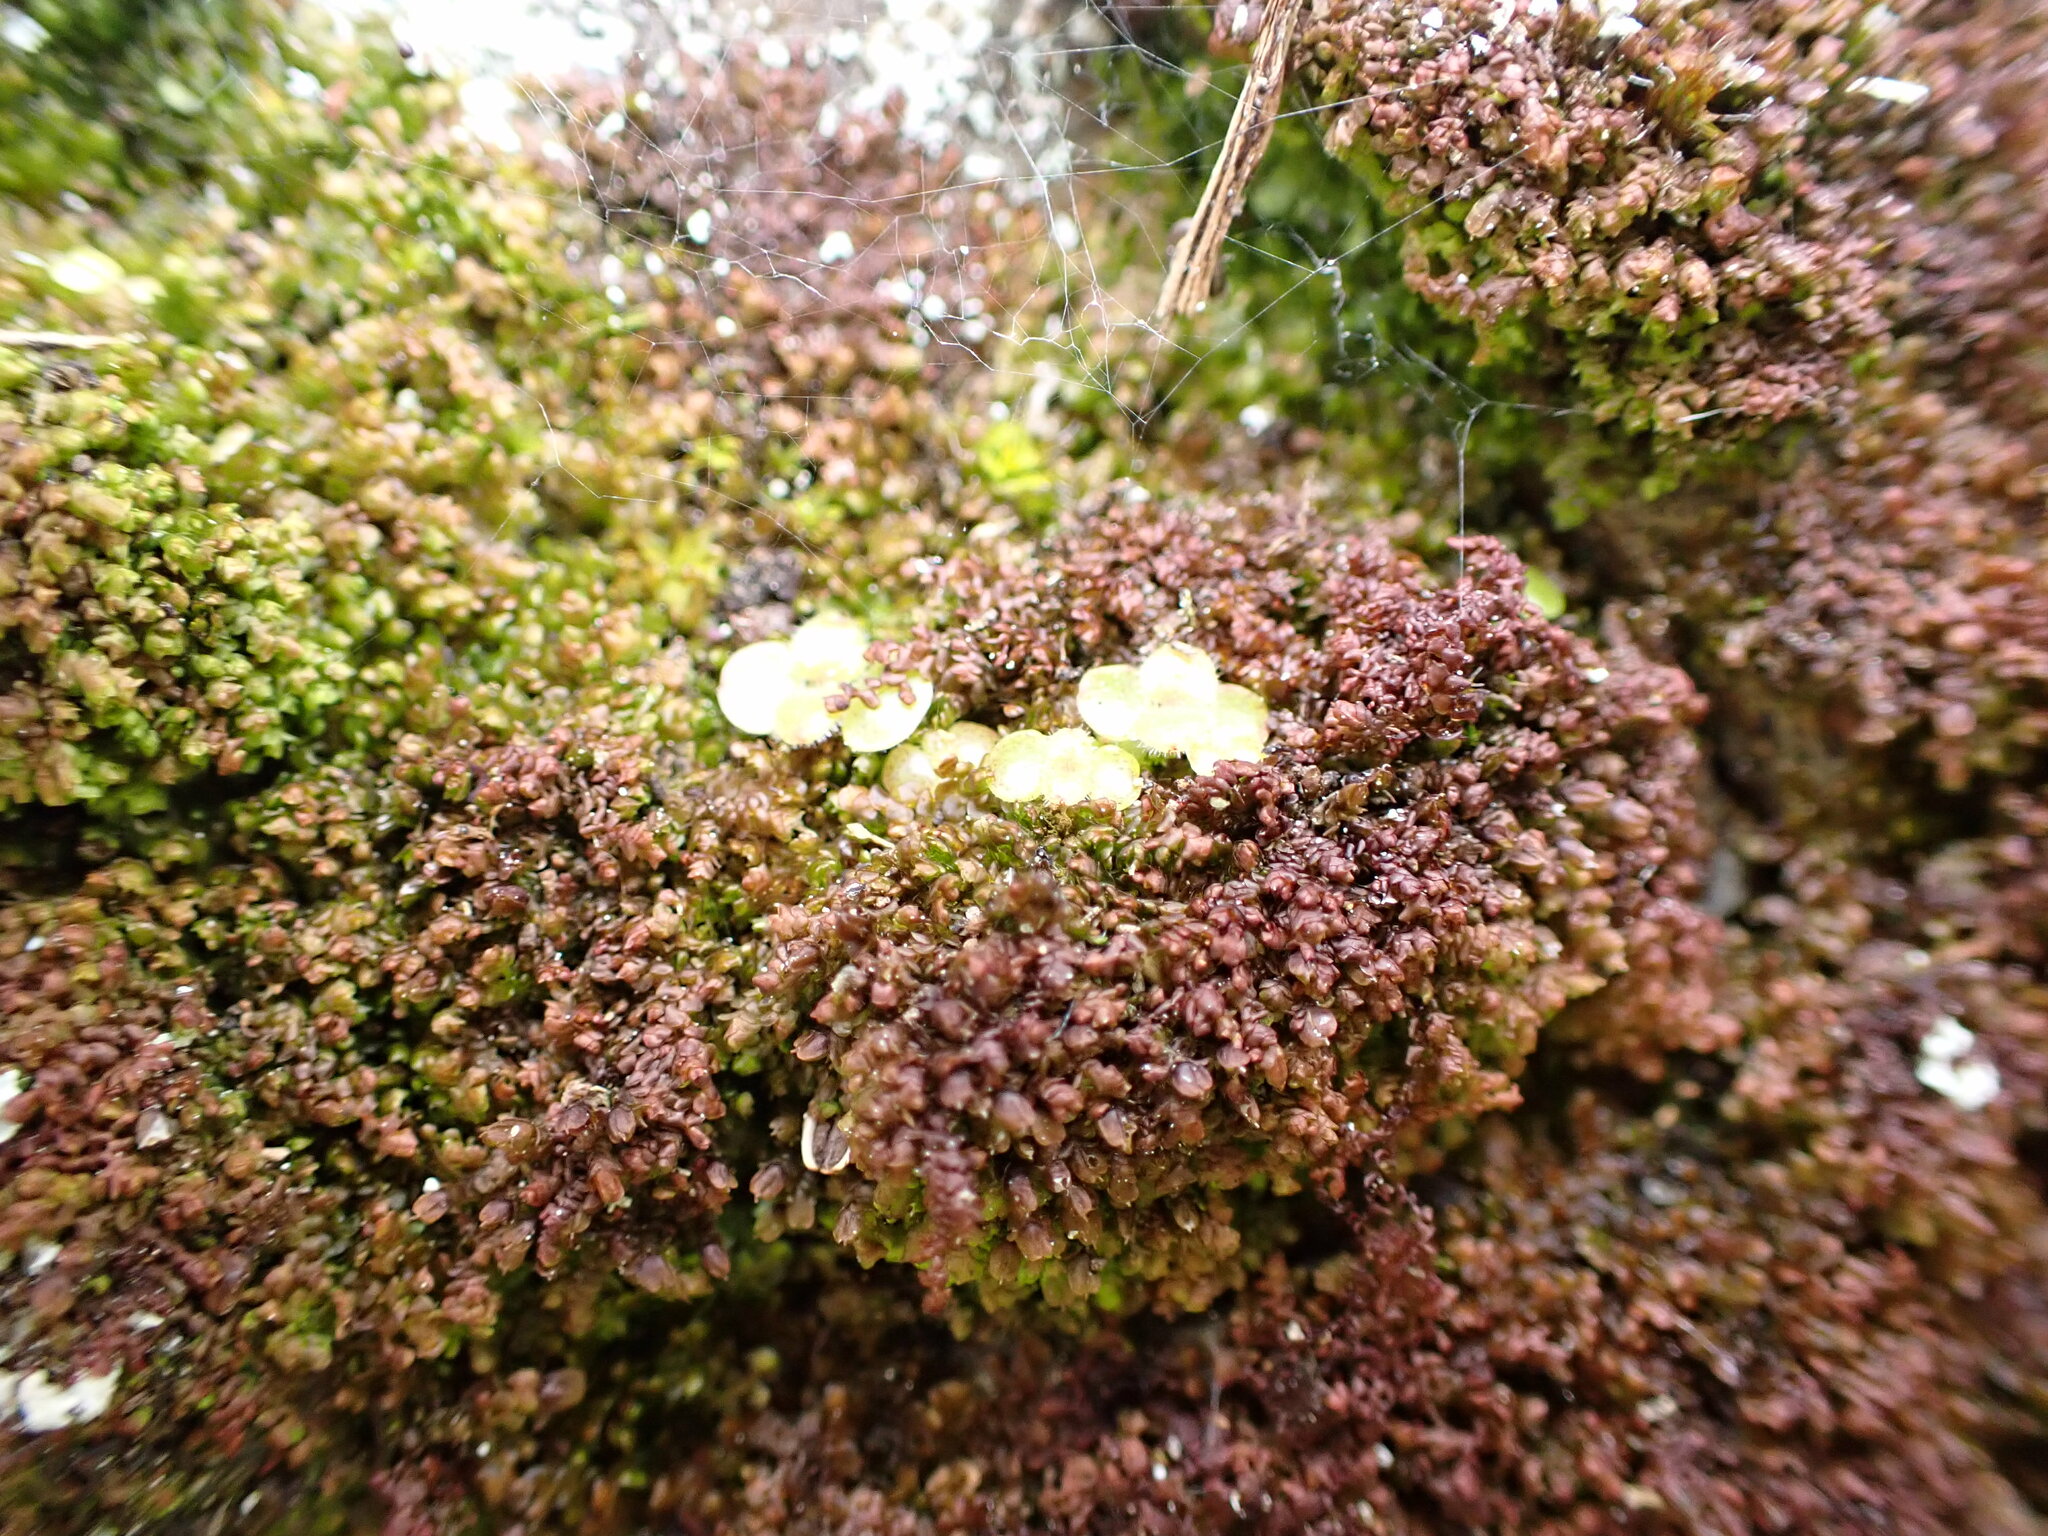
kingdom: Plantae
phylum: Tracheophyta
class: Magnoliopsida
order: Saxifragales
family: Crassulaceae
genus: Aichryson
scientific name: Aichryson laxum
